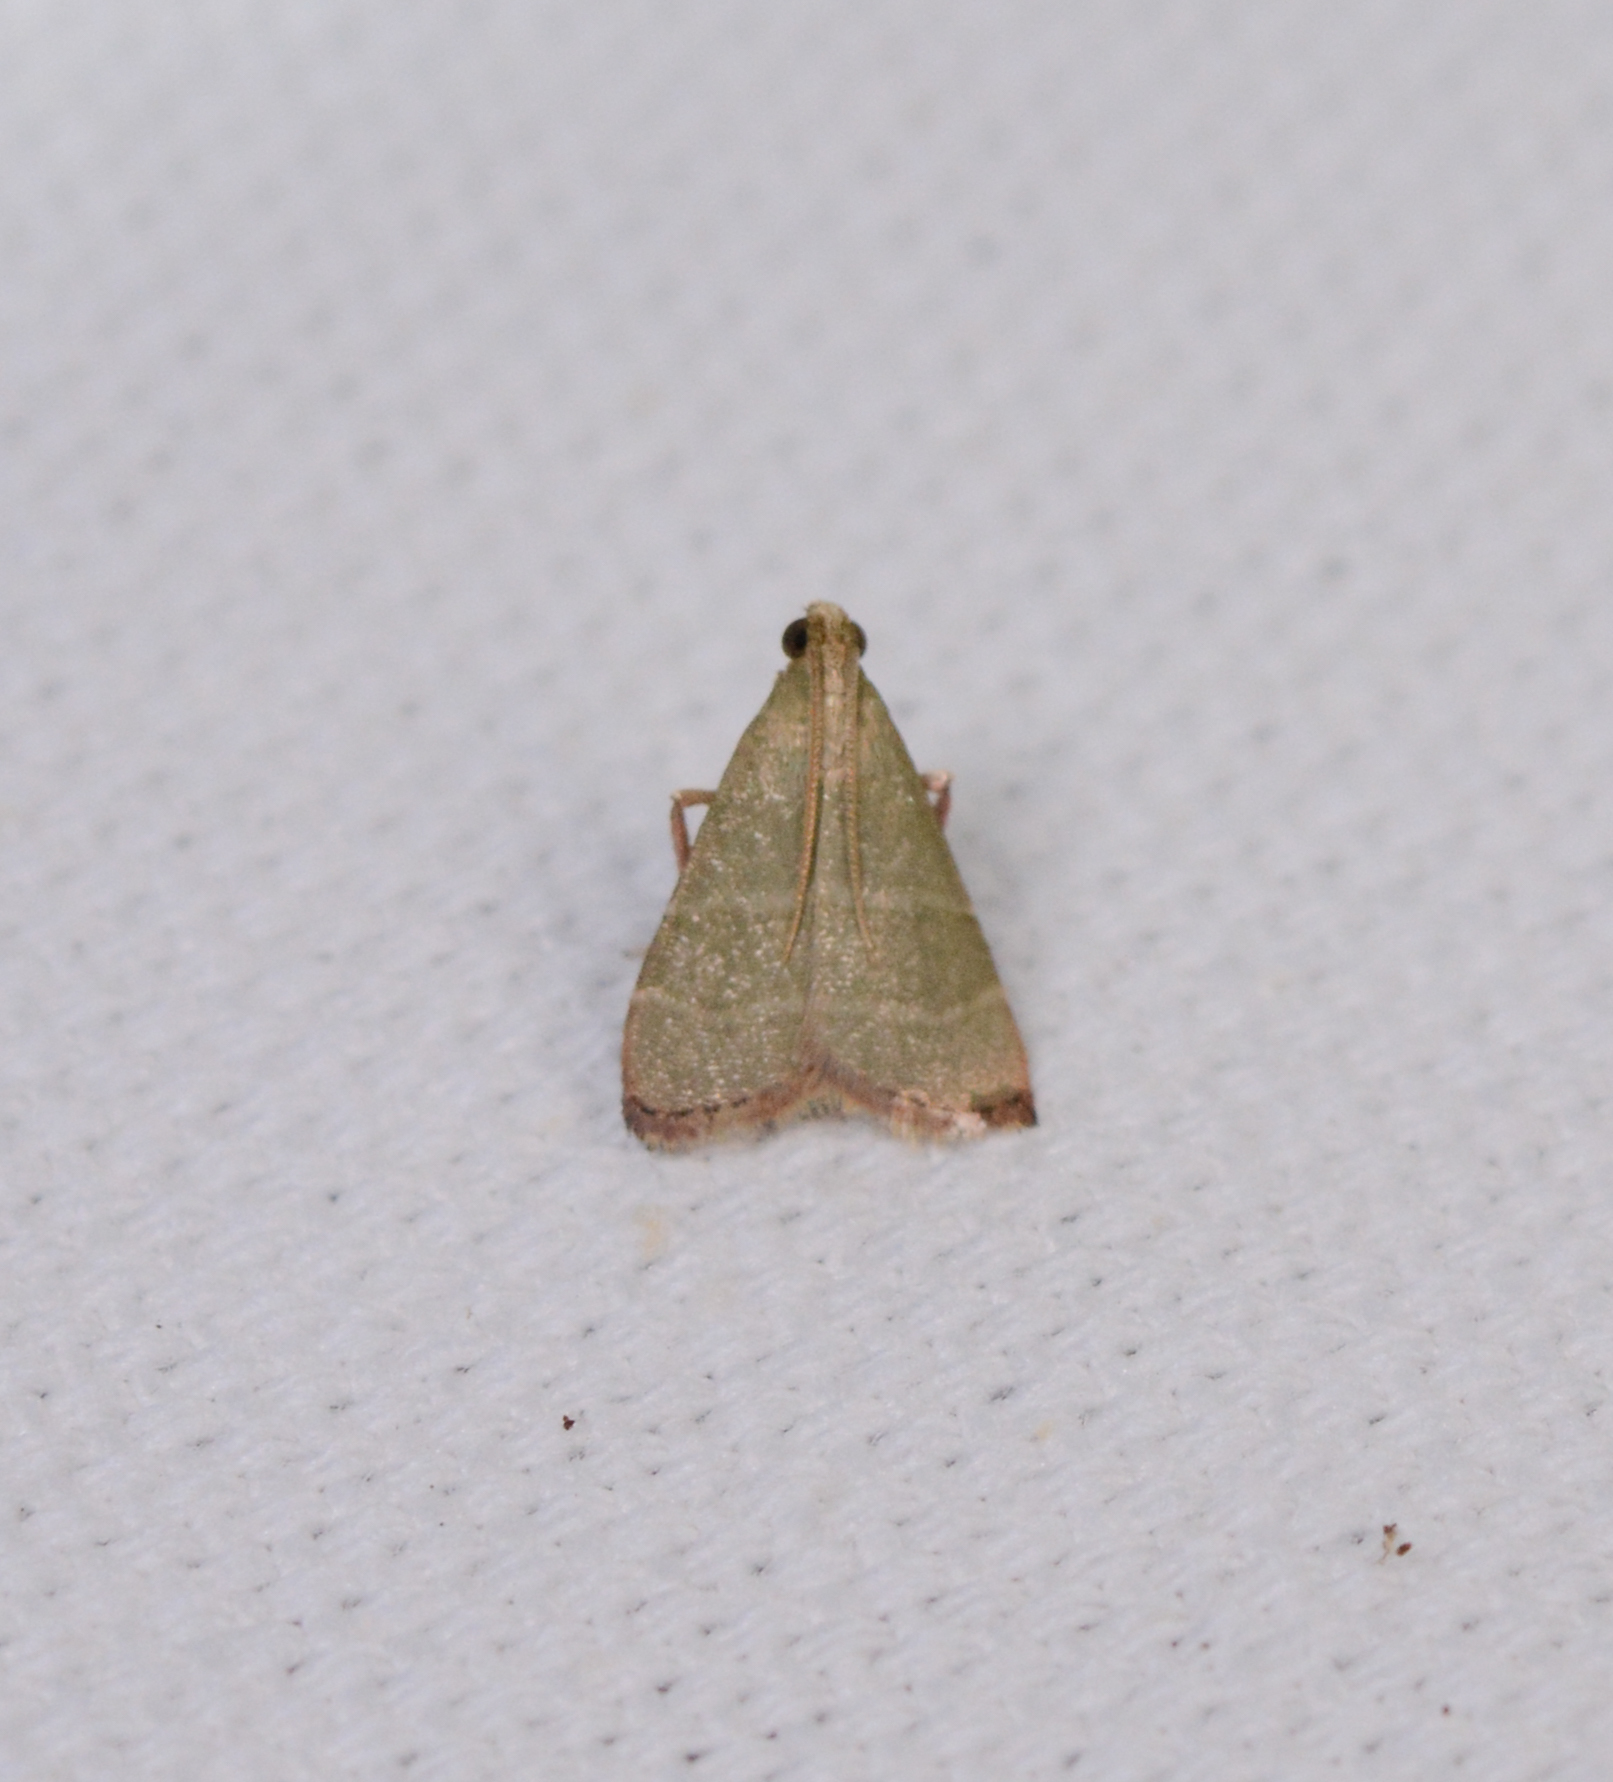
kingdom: Animalia
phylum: Arthropoda
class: Insecta
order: Lepidoptera
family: Pyralidae
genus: Arta
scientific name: Arta olivalis
